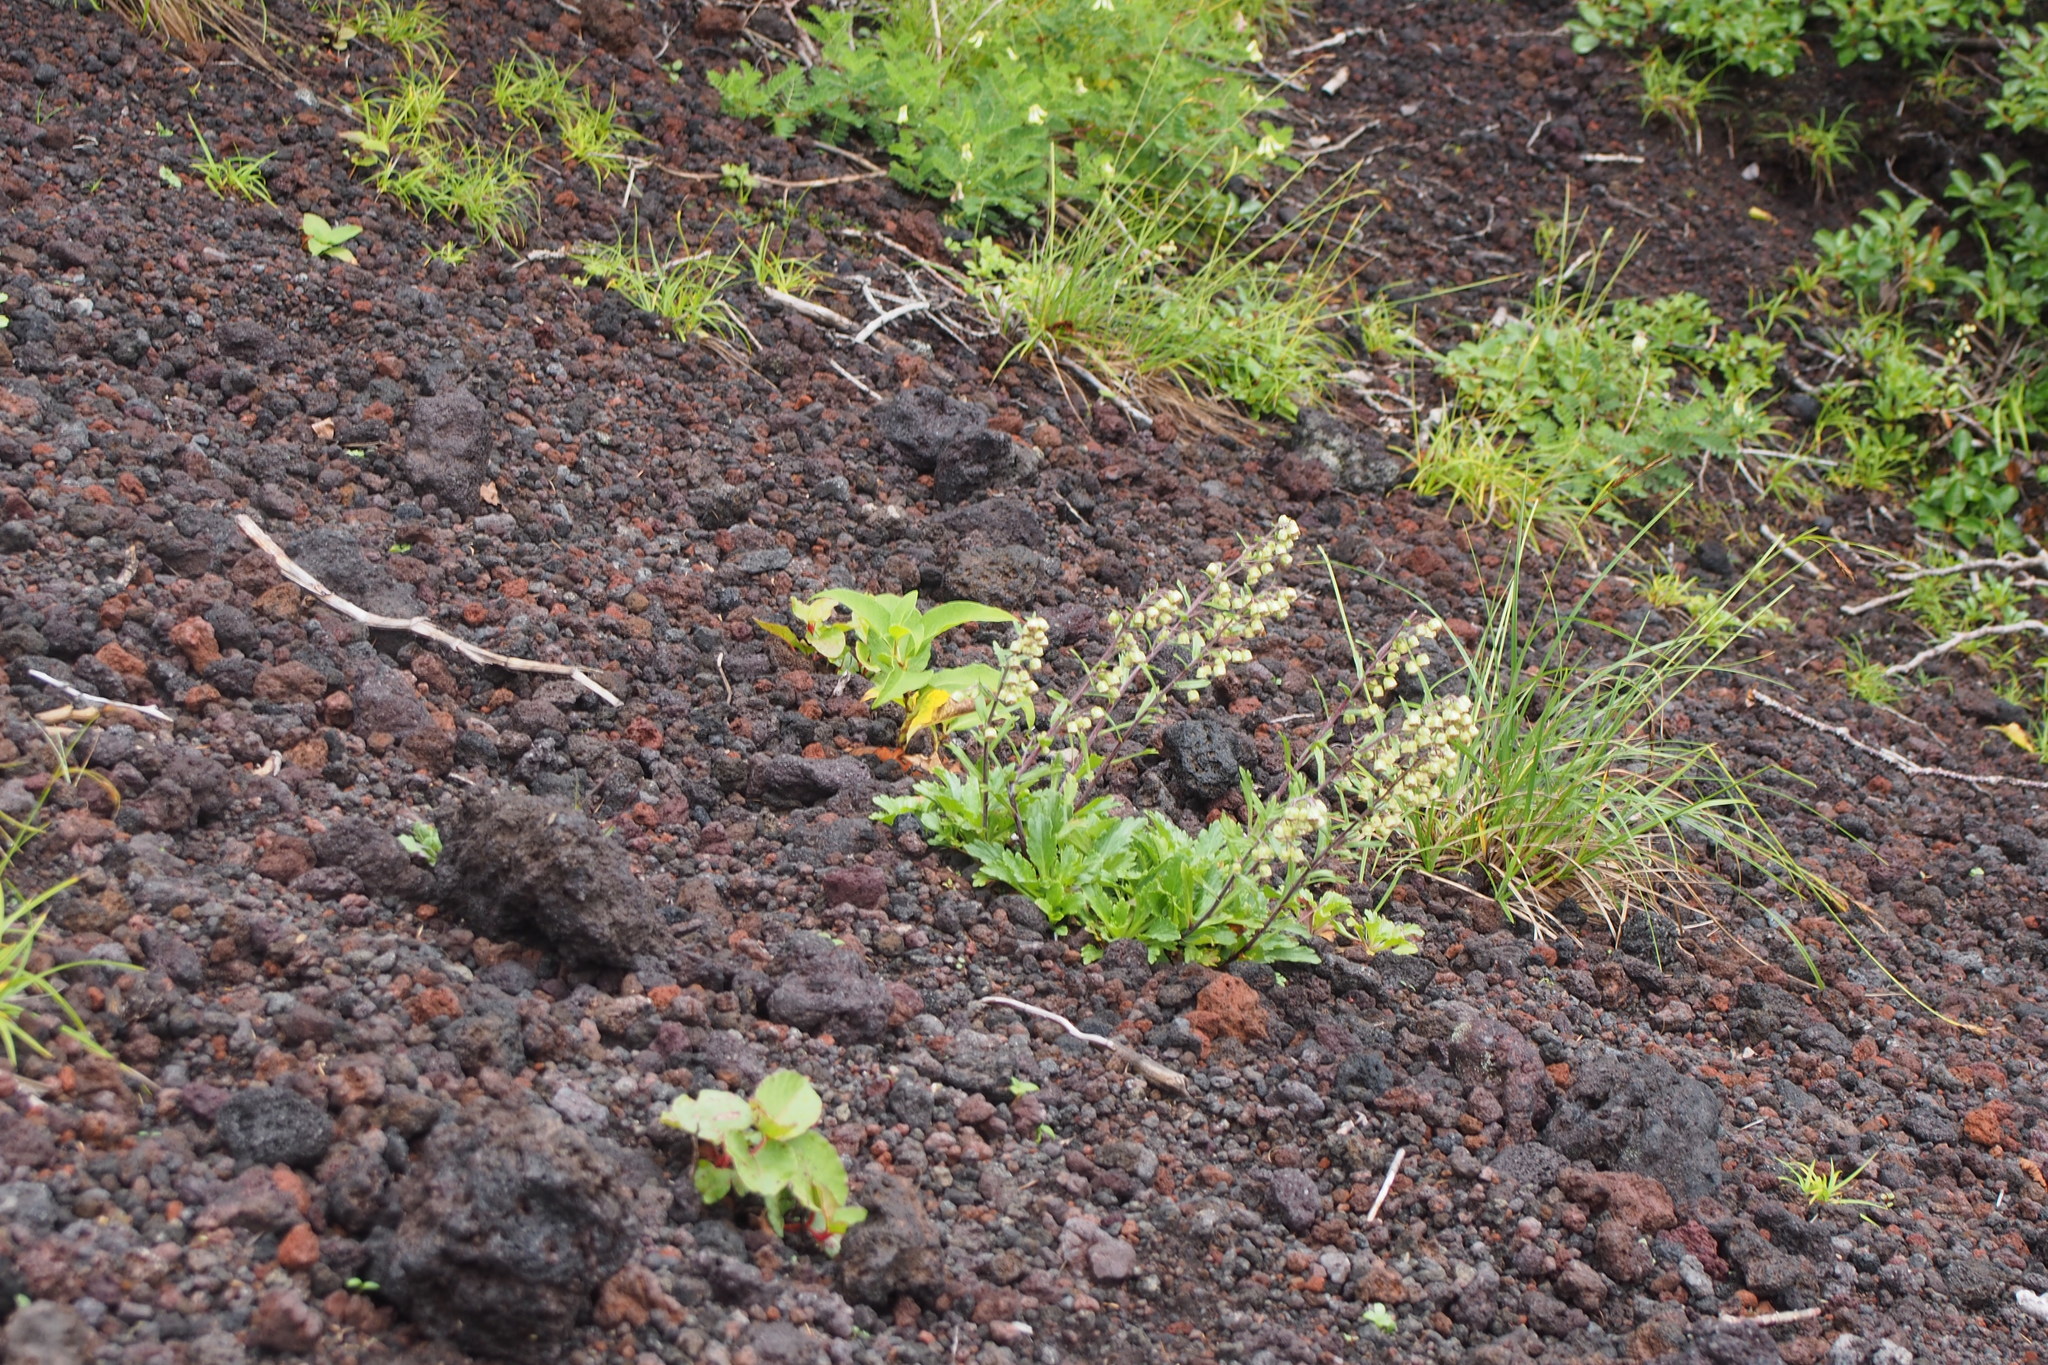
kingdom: Plantae
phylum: Tracheophyta
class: Magnoliopsida
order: Asterales
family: Asteraceae
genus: Artemisia
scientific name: Artemisia pedunculosa
